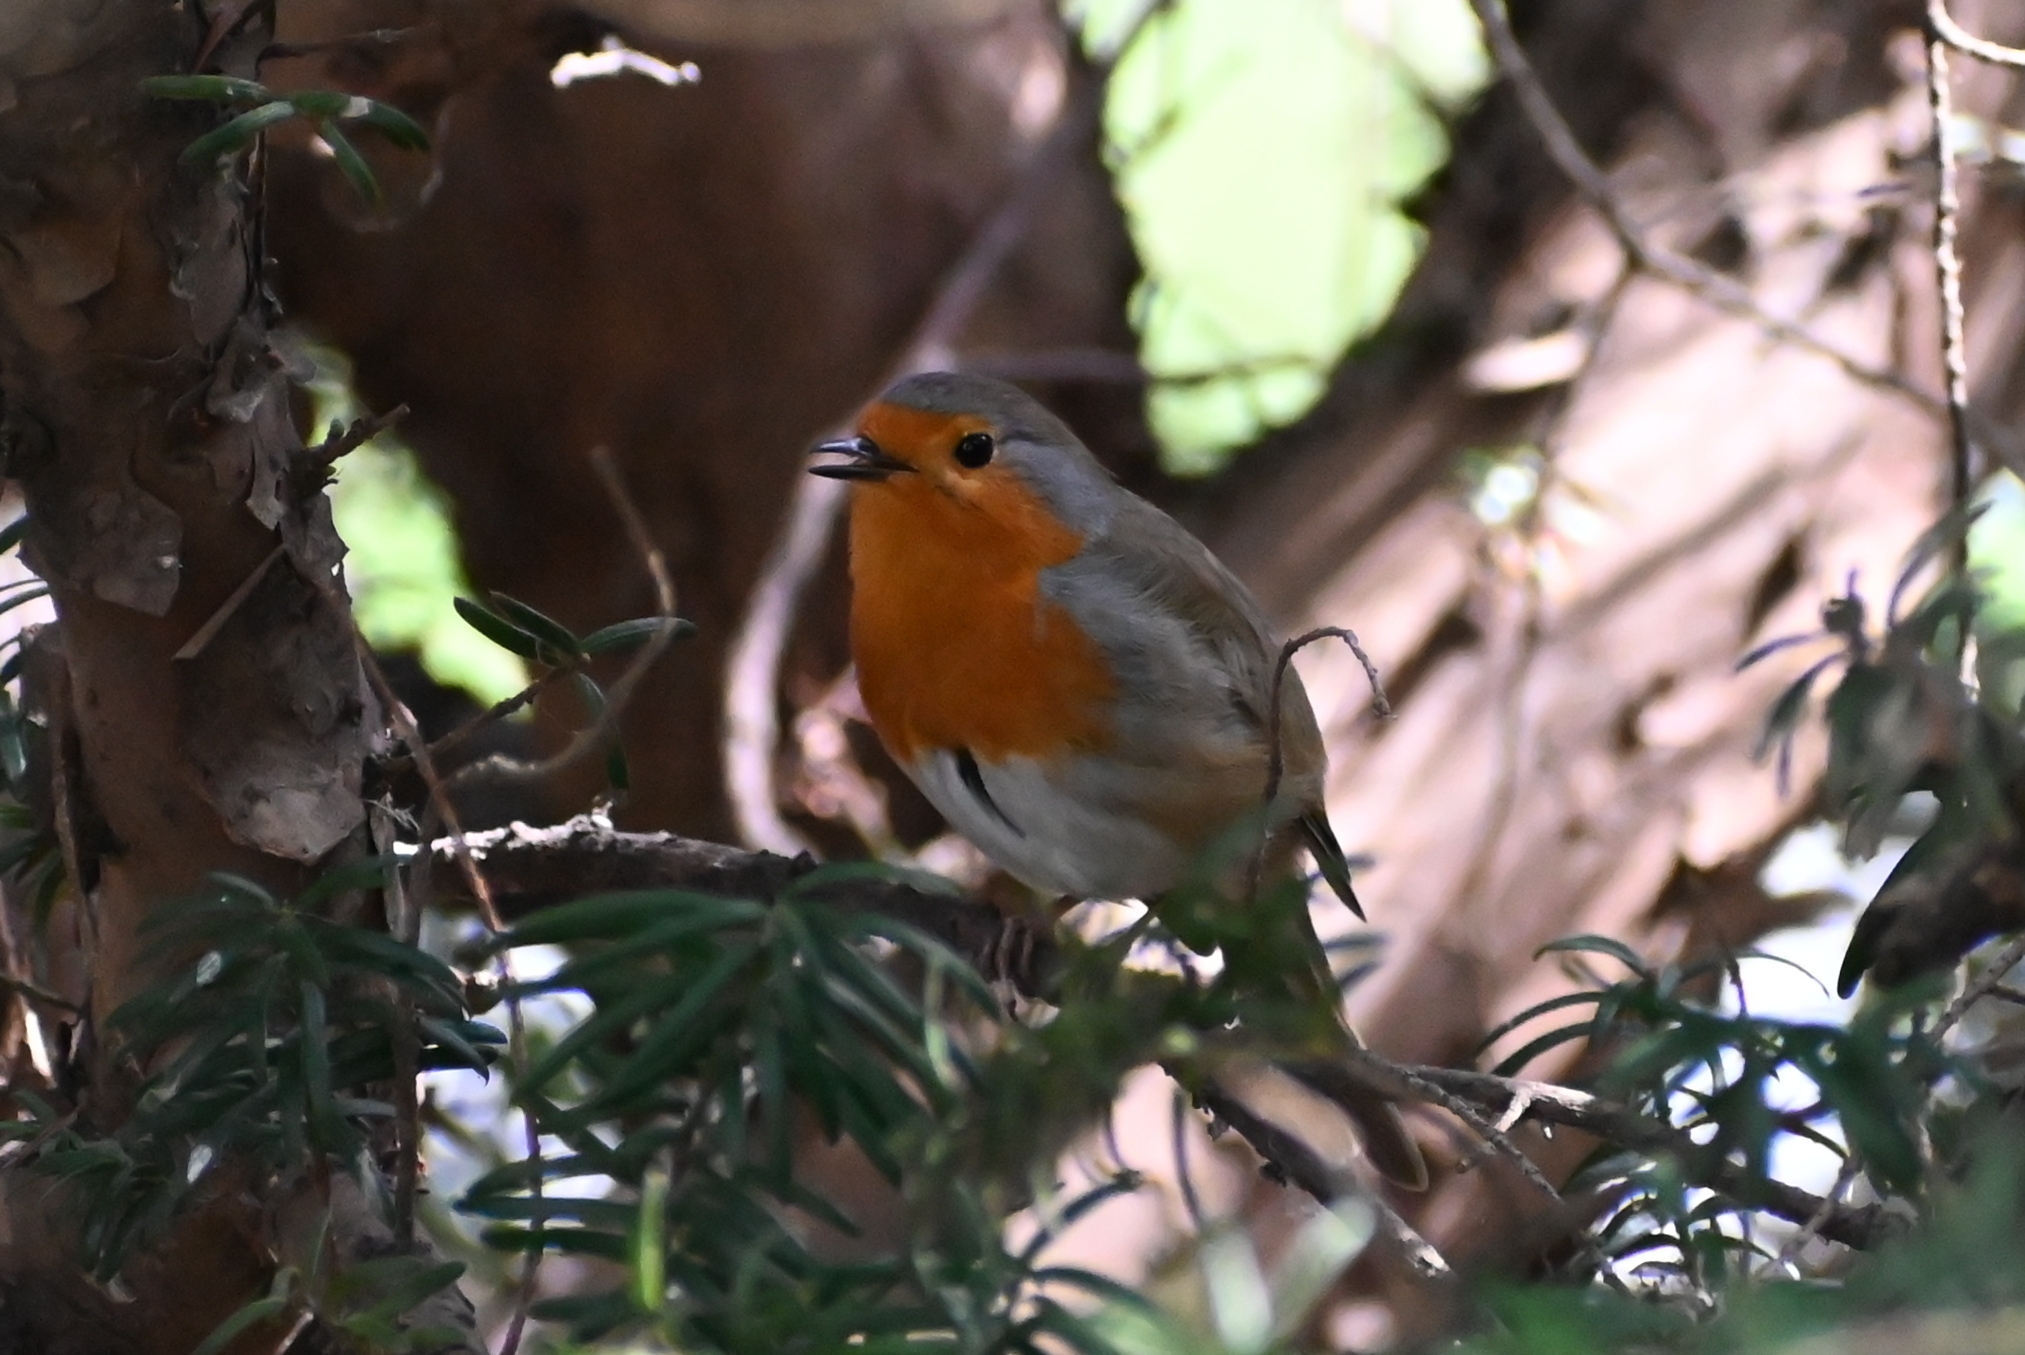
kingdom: Animalia
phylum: Chordata
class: Aves
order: Passeriformes
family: Muscicapidae
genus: Erithacus
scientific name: Erithacus rubecula
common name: European robin
